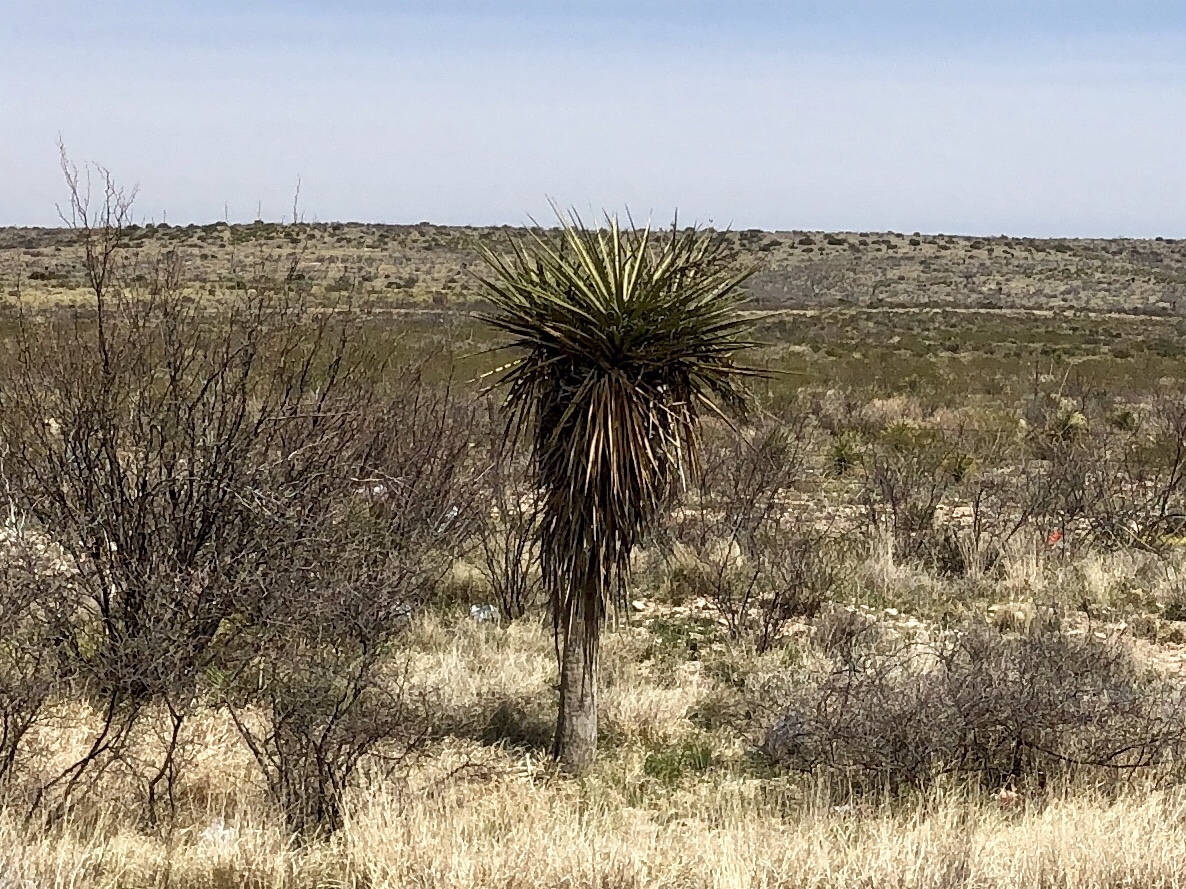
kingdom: Plantae
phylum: Tracheophyta
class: Liliopsida
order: Asparagales
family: Asparagaceae
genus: Yucca
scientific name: Yucca treculiana
